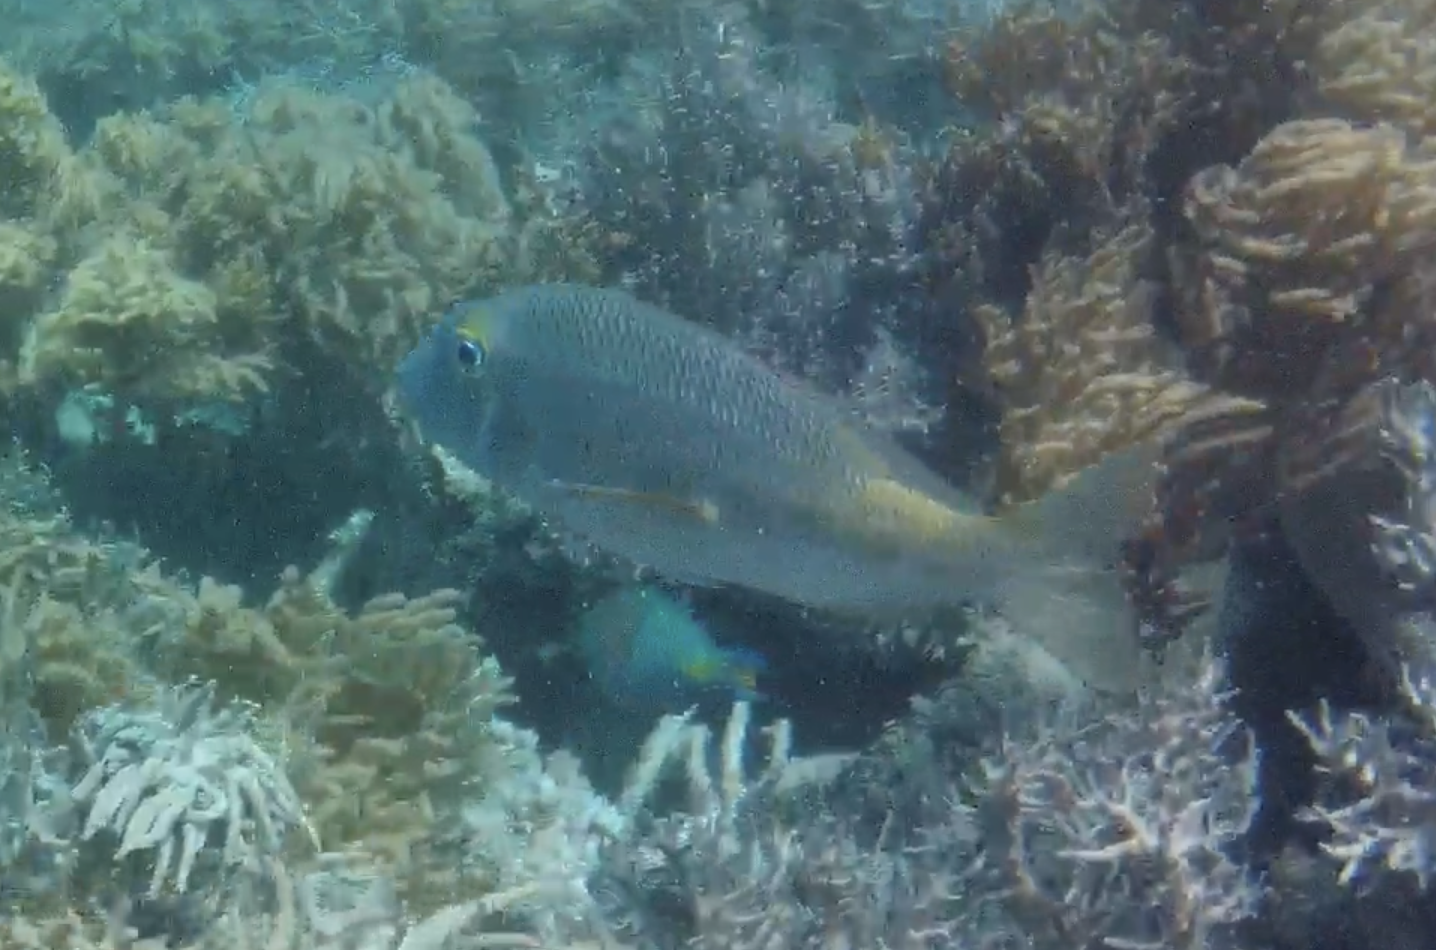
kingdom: Animalia
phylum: Chordata
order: Perciformes
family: Lethrinidae
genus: Lethrinus
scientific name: Lethrinus atkinsoni
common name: Pacific yellowtail emperor
